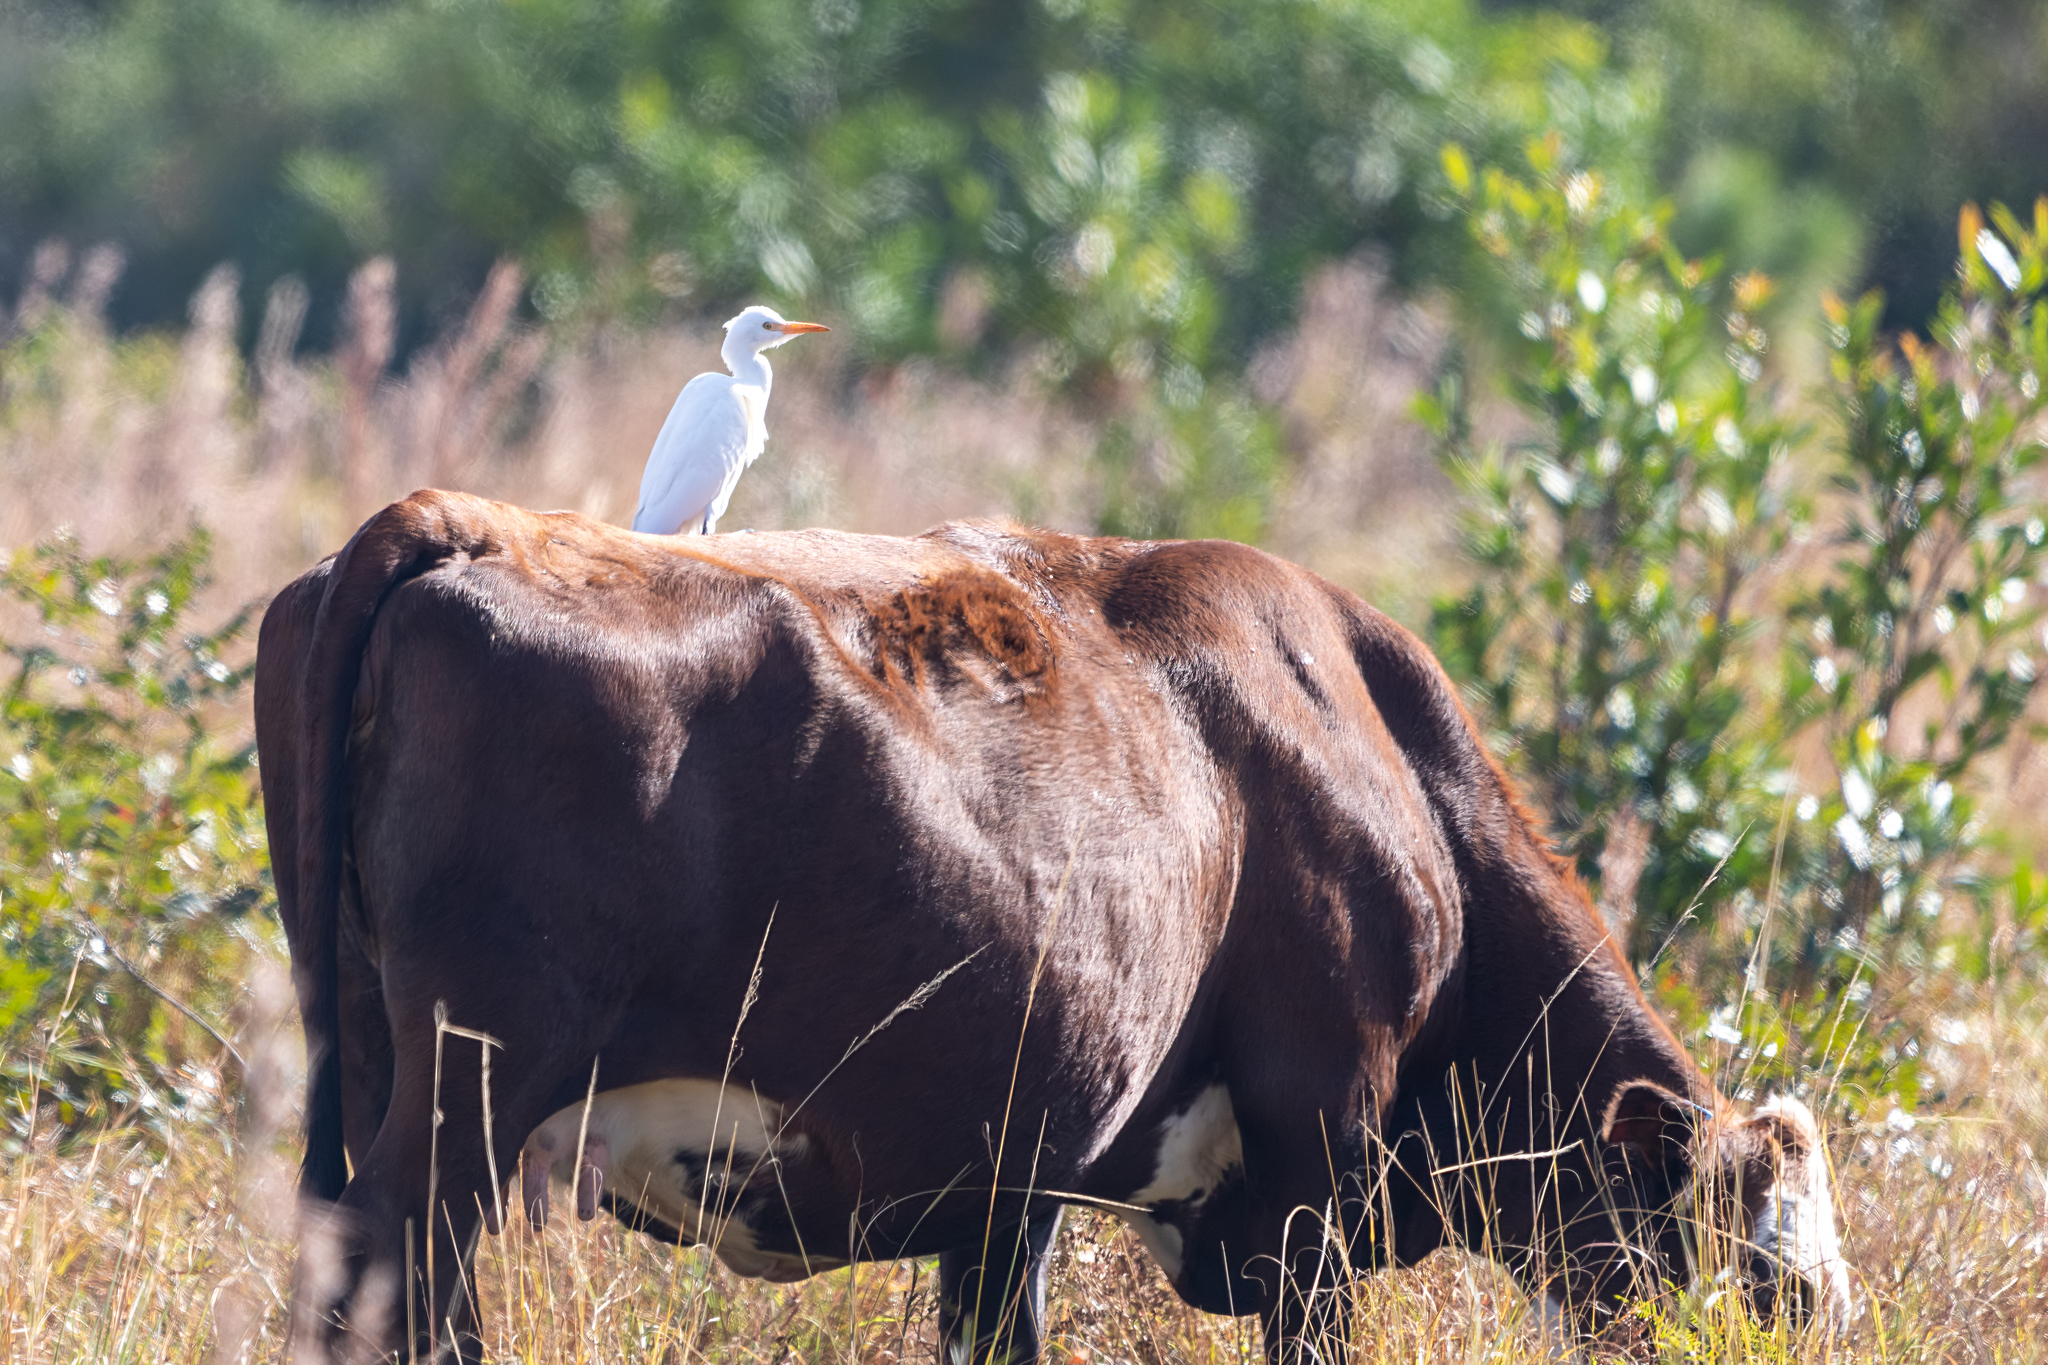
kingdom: Animalia
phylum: Chordata
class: Aves
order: Pelecaniformes
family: Ardeidae
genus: Bubulcus
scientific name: Bubulcus ibis
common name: Cattle egret
